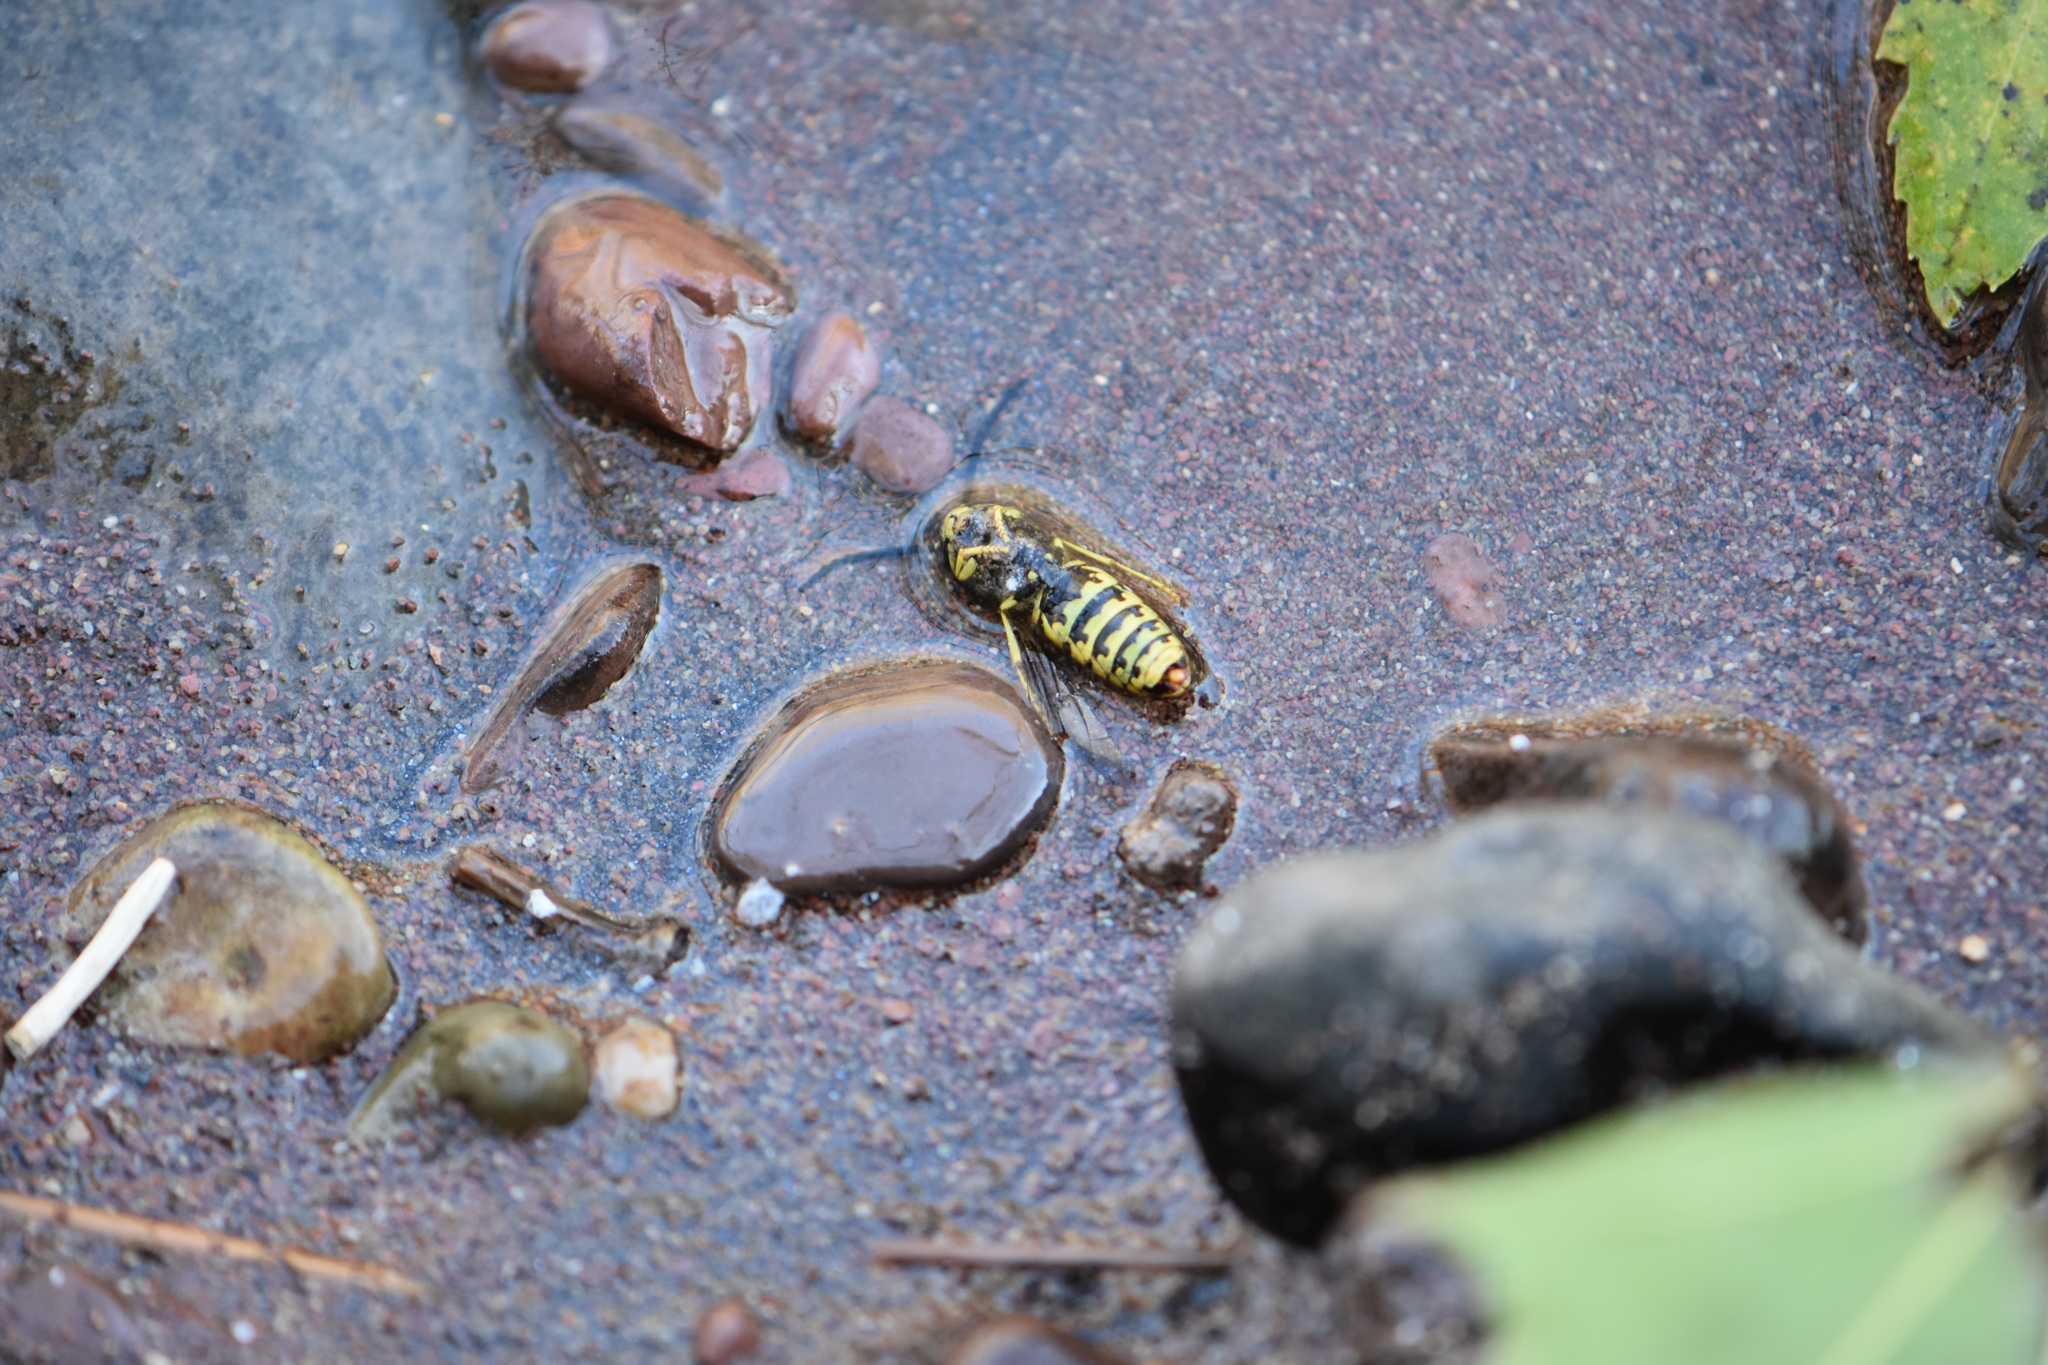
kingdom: Animalia
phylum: Arthropoda
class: Insecta
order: Hymenoptera
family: Vespidae
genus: Vespula
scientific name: Vespula
